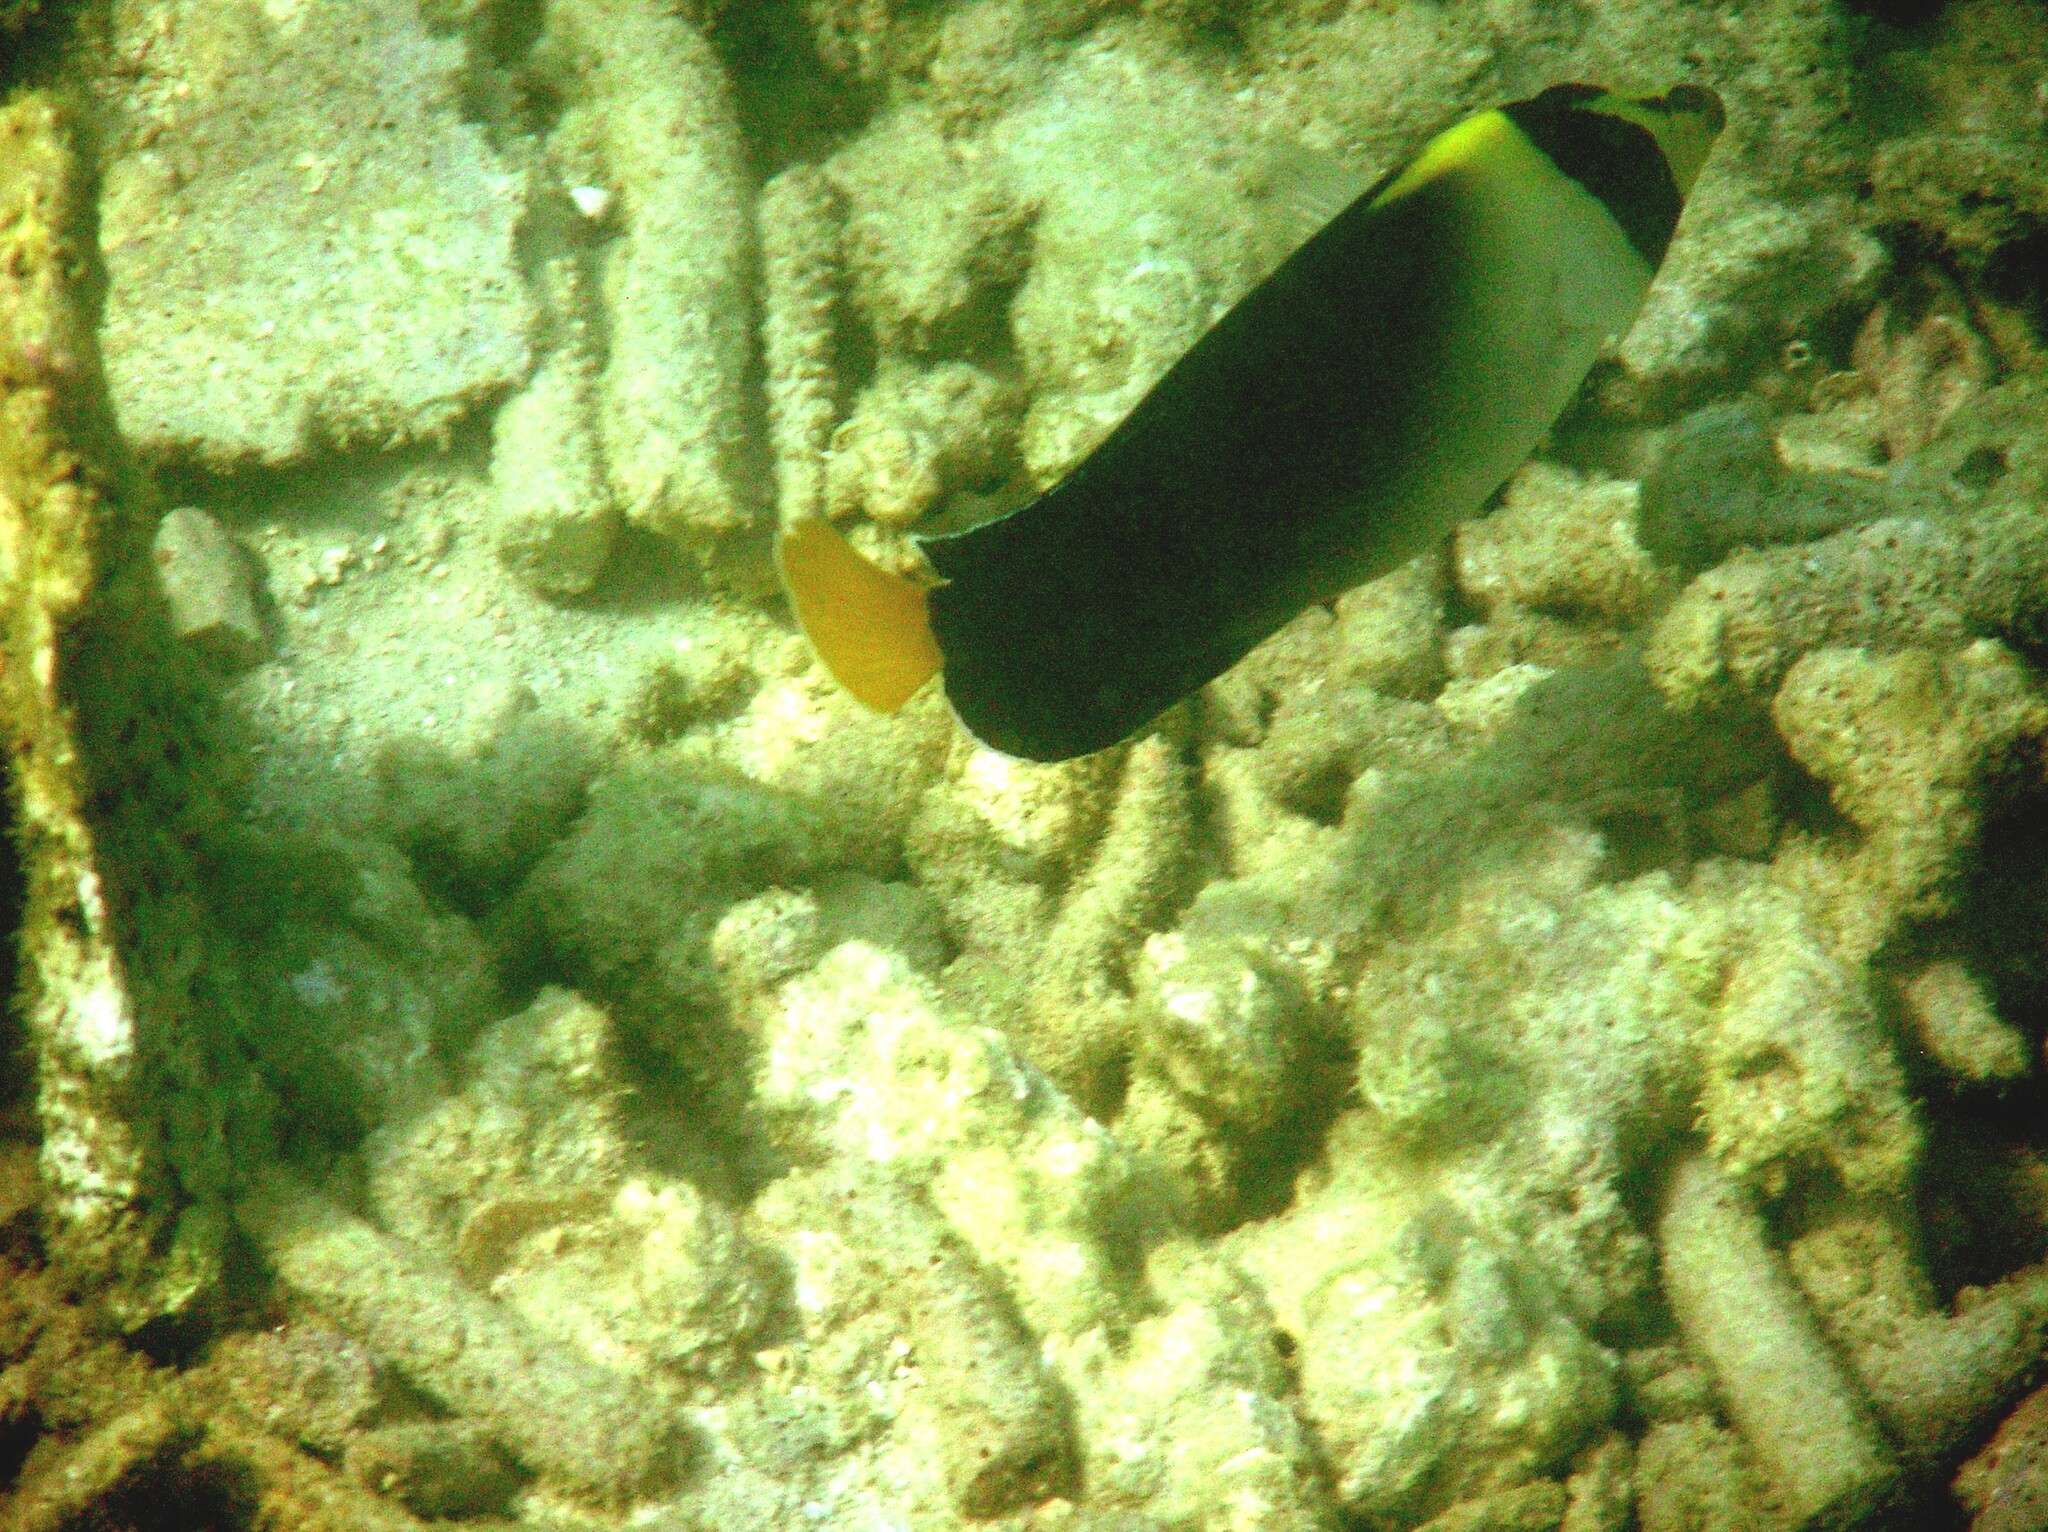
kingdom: Animalia
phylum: Chordata
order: Perciformes
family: Pomacanthidae
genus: Chaetodontoplus
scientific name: Chaetodontoplus mesoleucus
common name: Vermiculated angelfish
